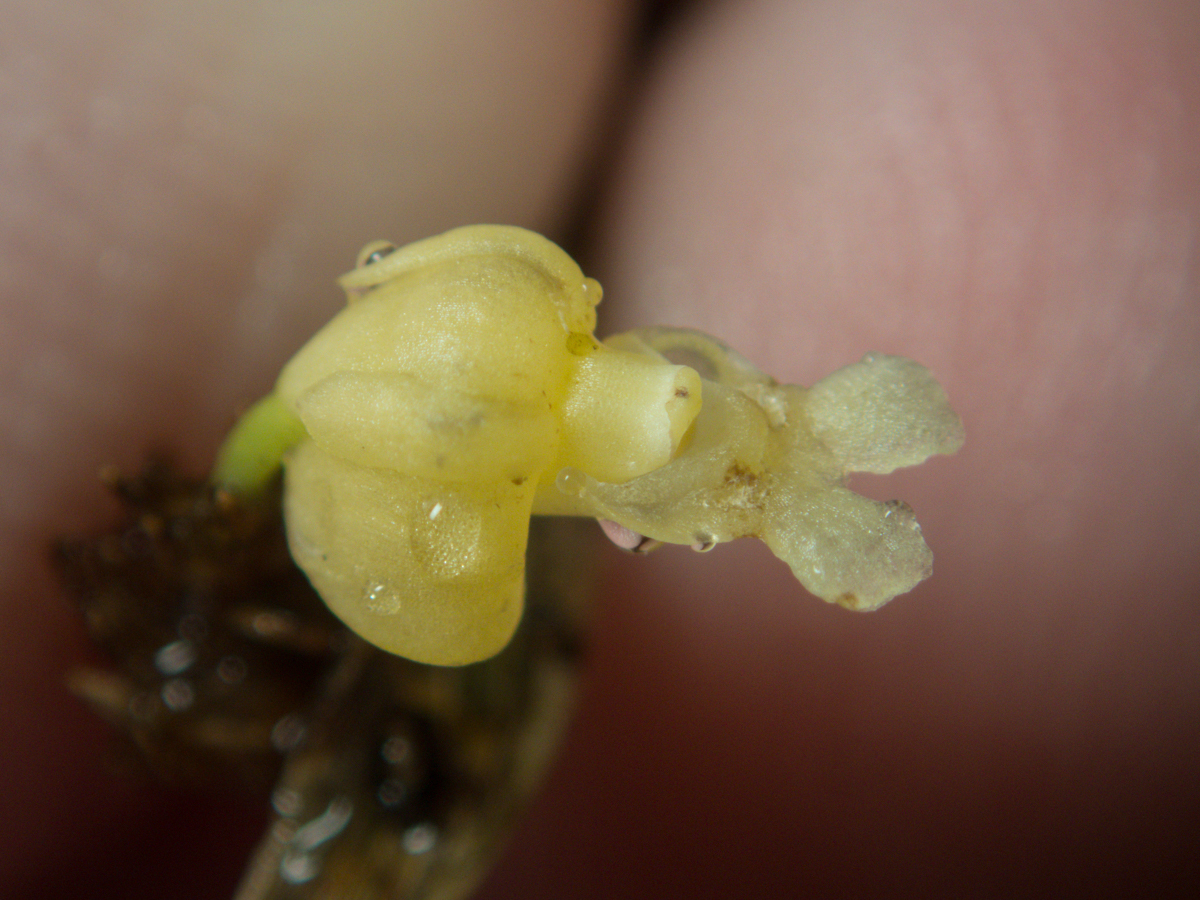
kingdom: Plantae
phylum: Tracheophyta
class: Liliopsida
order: Asparagales
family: Orchidaceae
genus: Dendrobium
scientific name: Dendrobium aloifolium
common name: Aloe-like dendrobium
